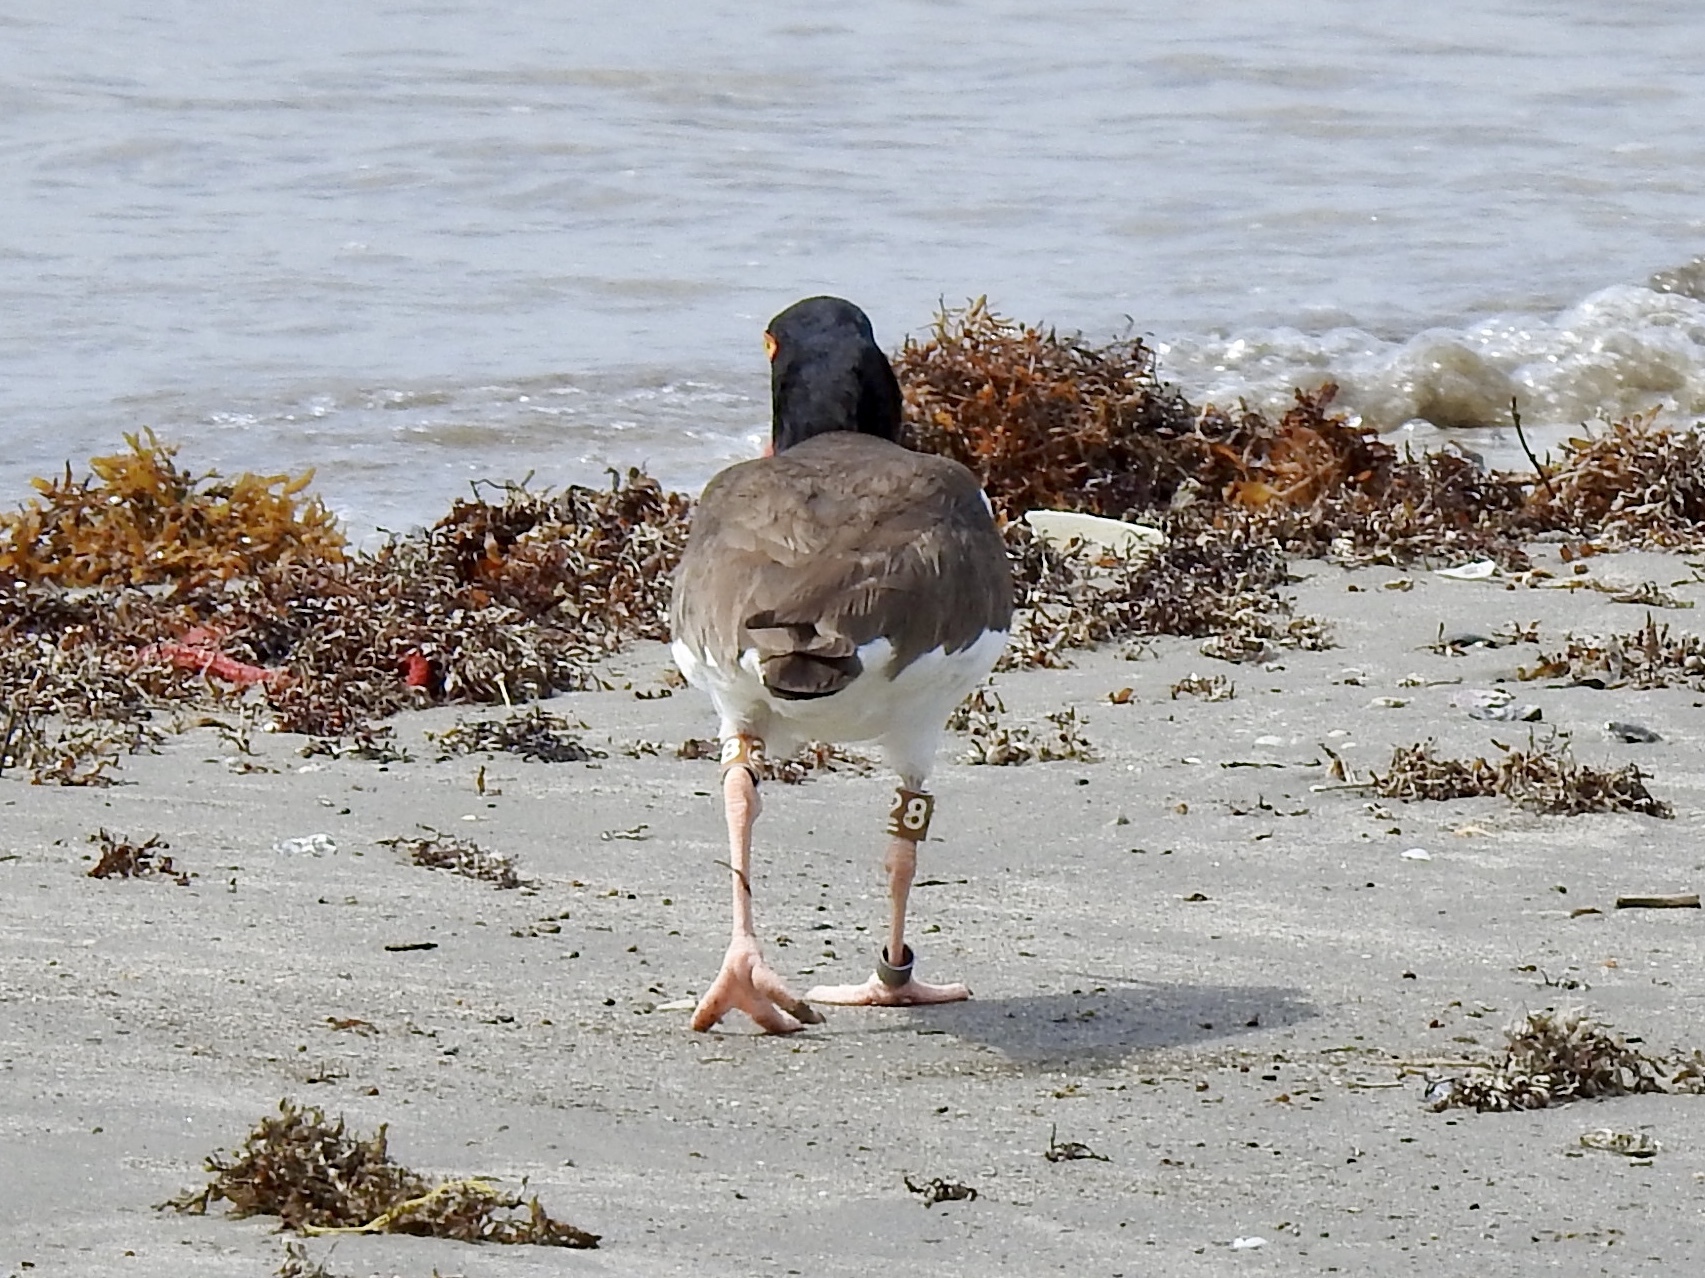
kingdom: Animalia
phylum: Chordata
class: Aves
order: Charadriiformes
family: Scolopacidae
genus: Arenaria
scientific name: Arenaria interpres
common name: Ruddy turnstone
